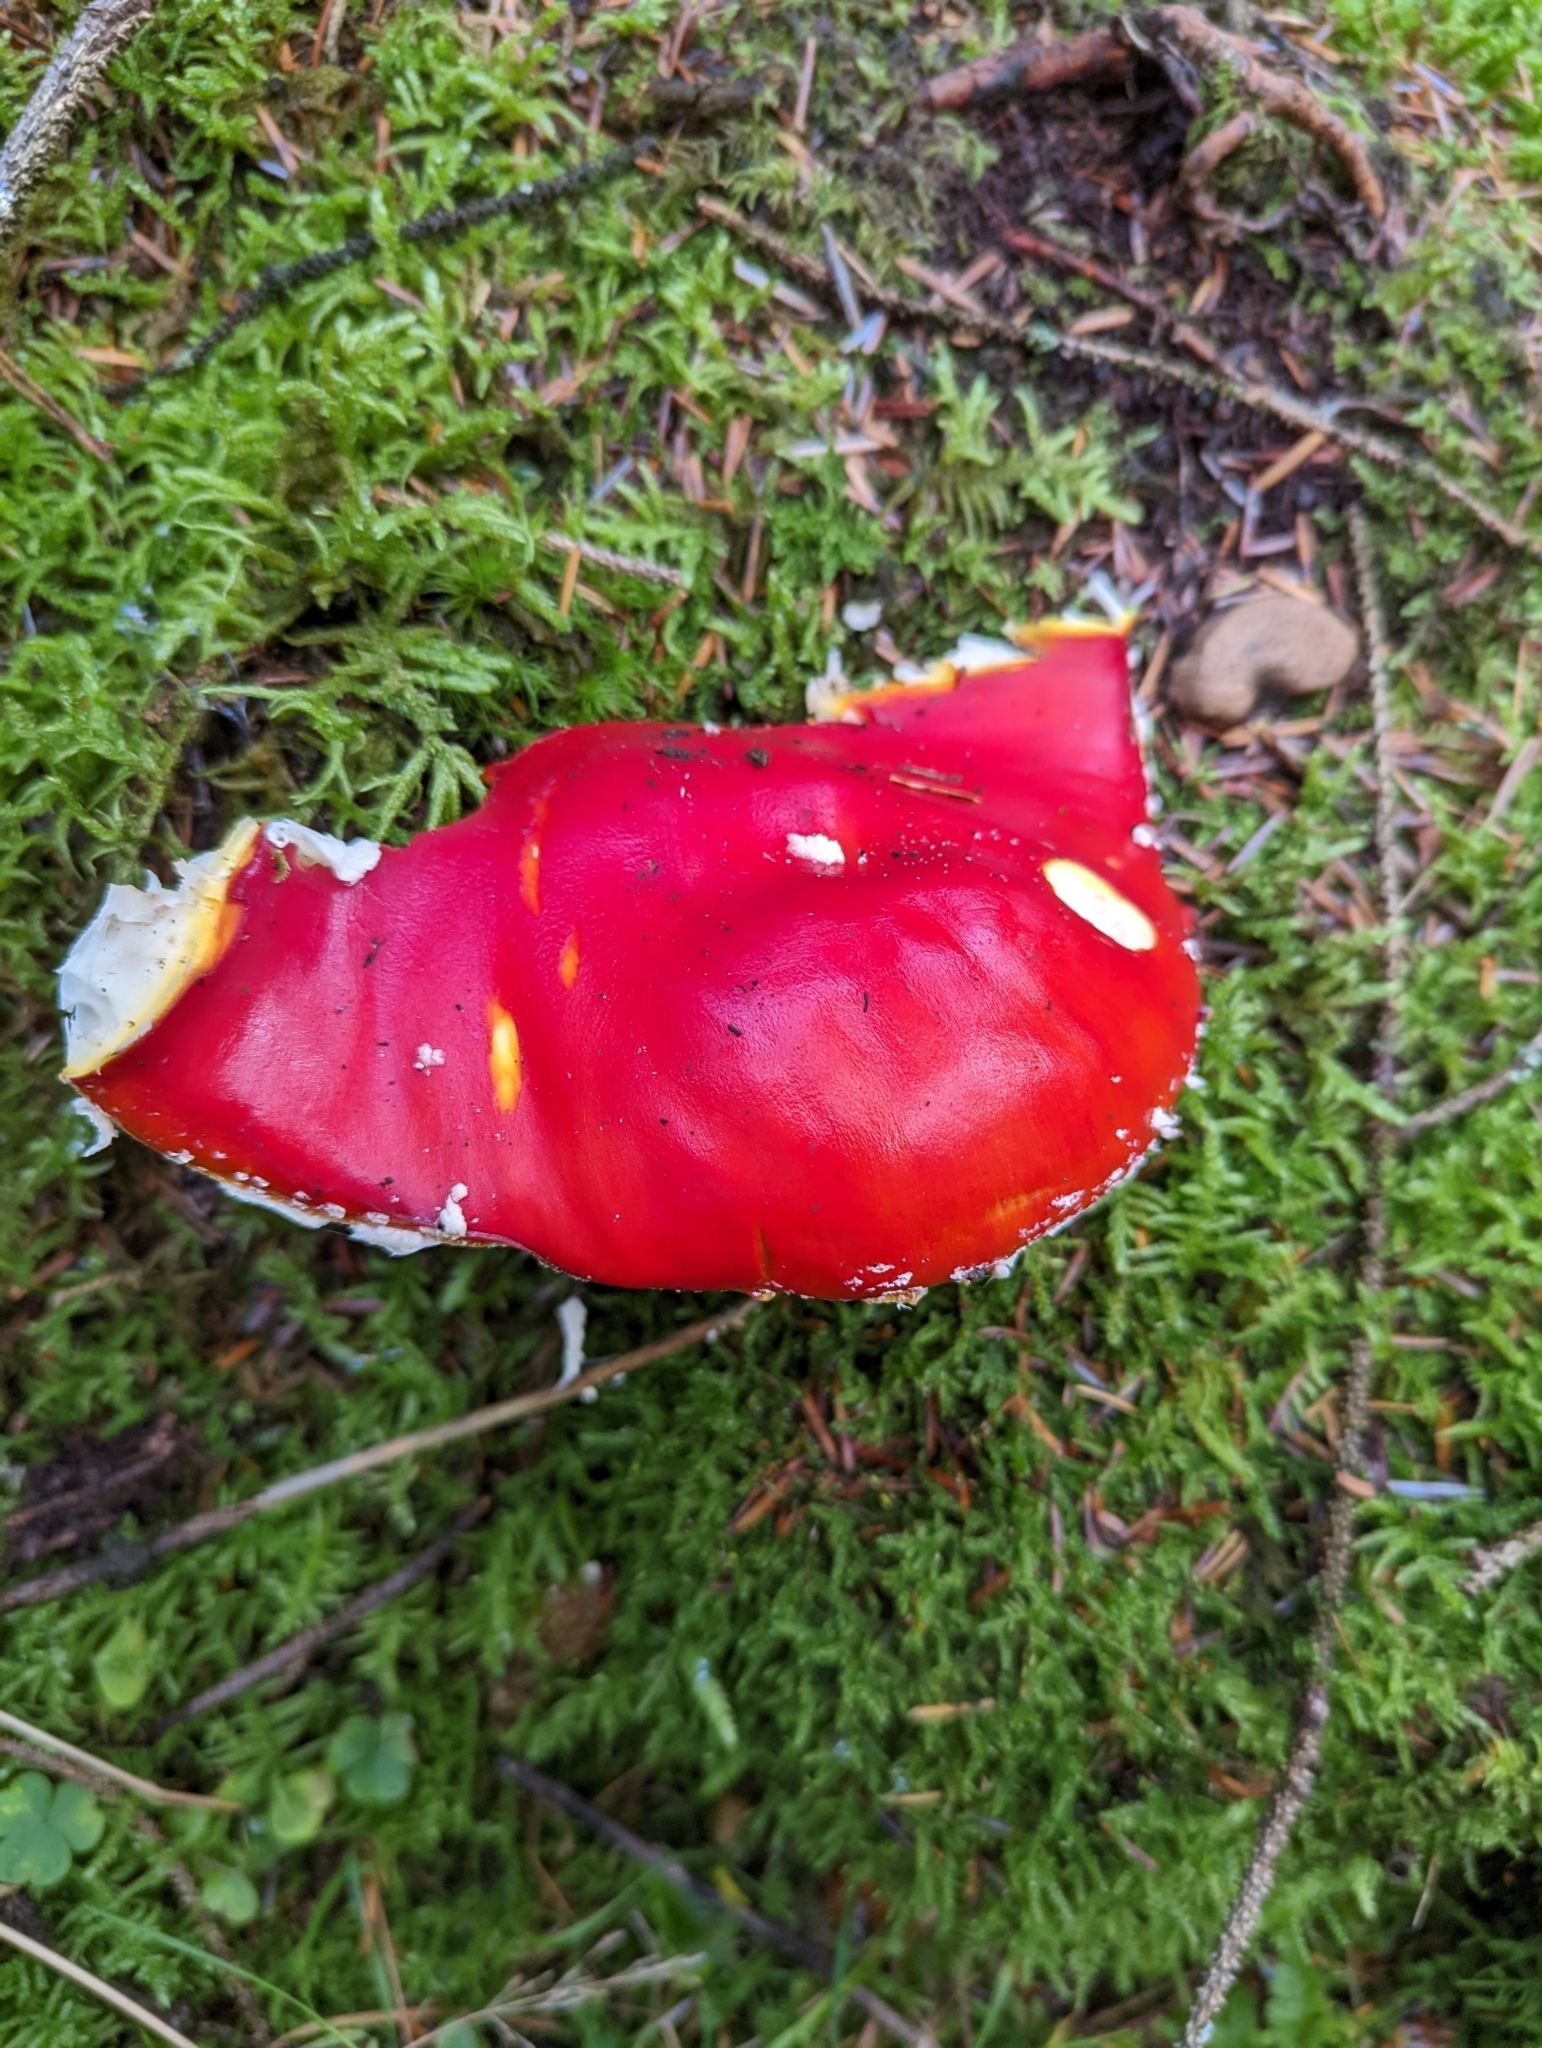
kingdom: Fungi
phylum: Basidiomycota
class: Agaricomycetes
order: Agaricales
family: Amanitaceae
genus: Amanita
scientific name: Amanita muscaria
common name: Fly agaric
